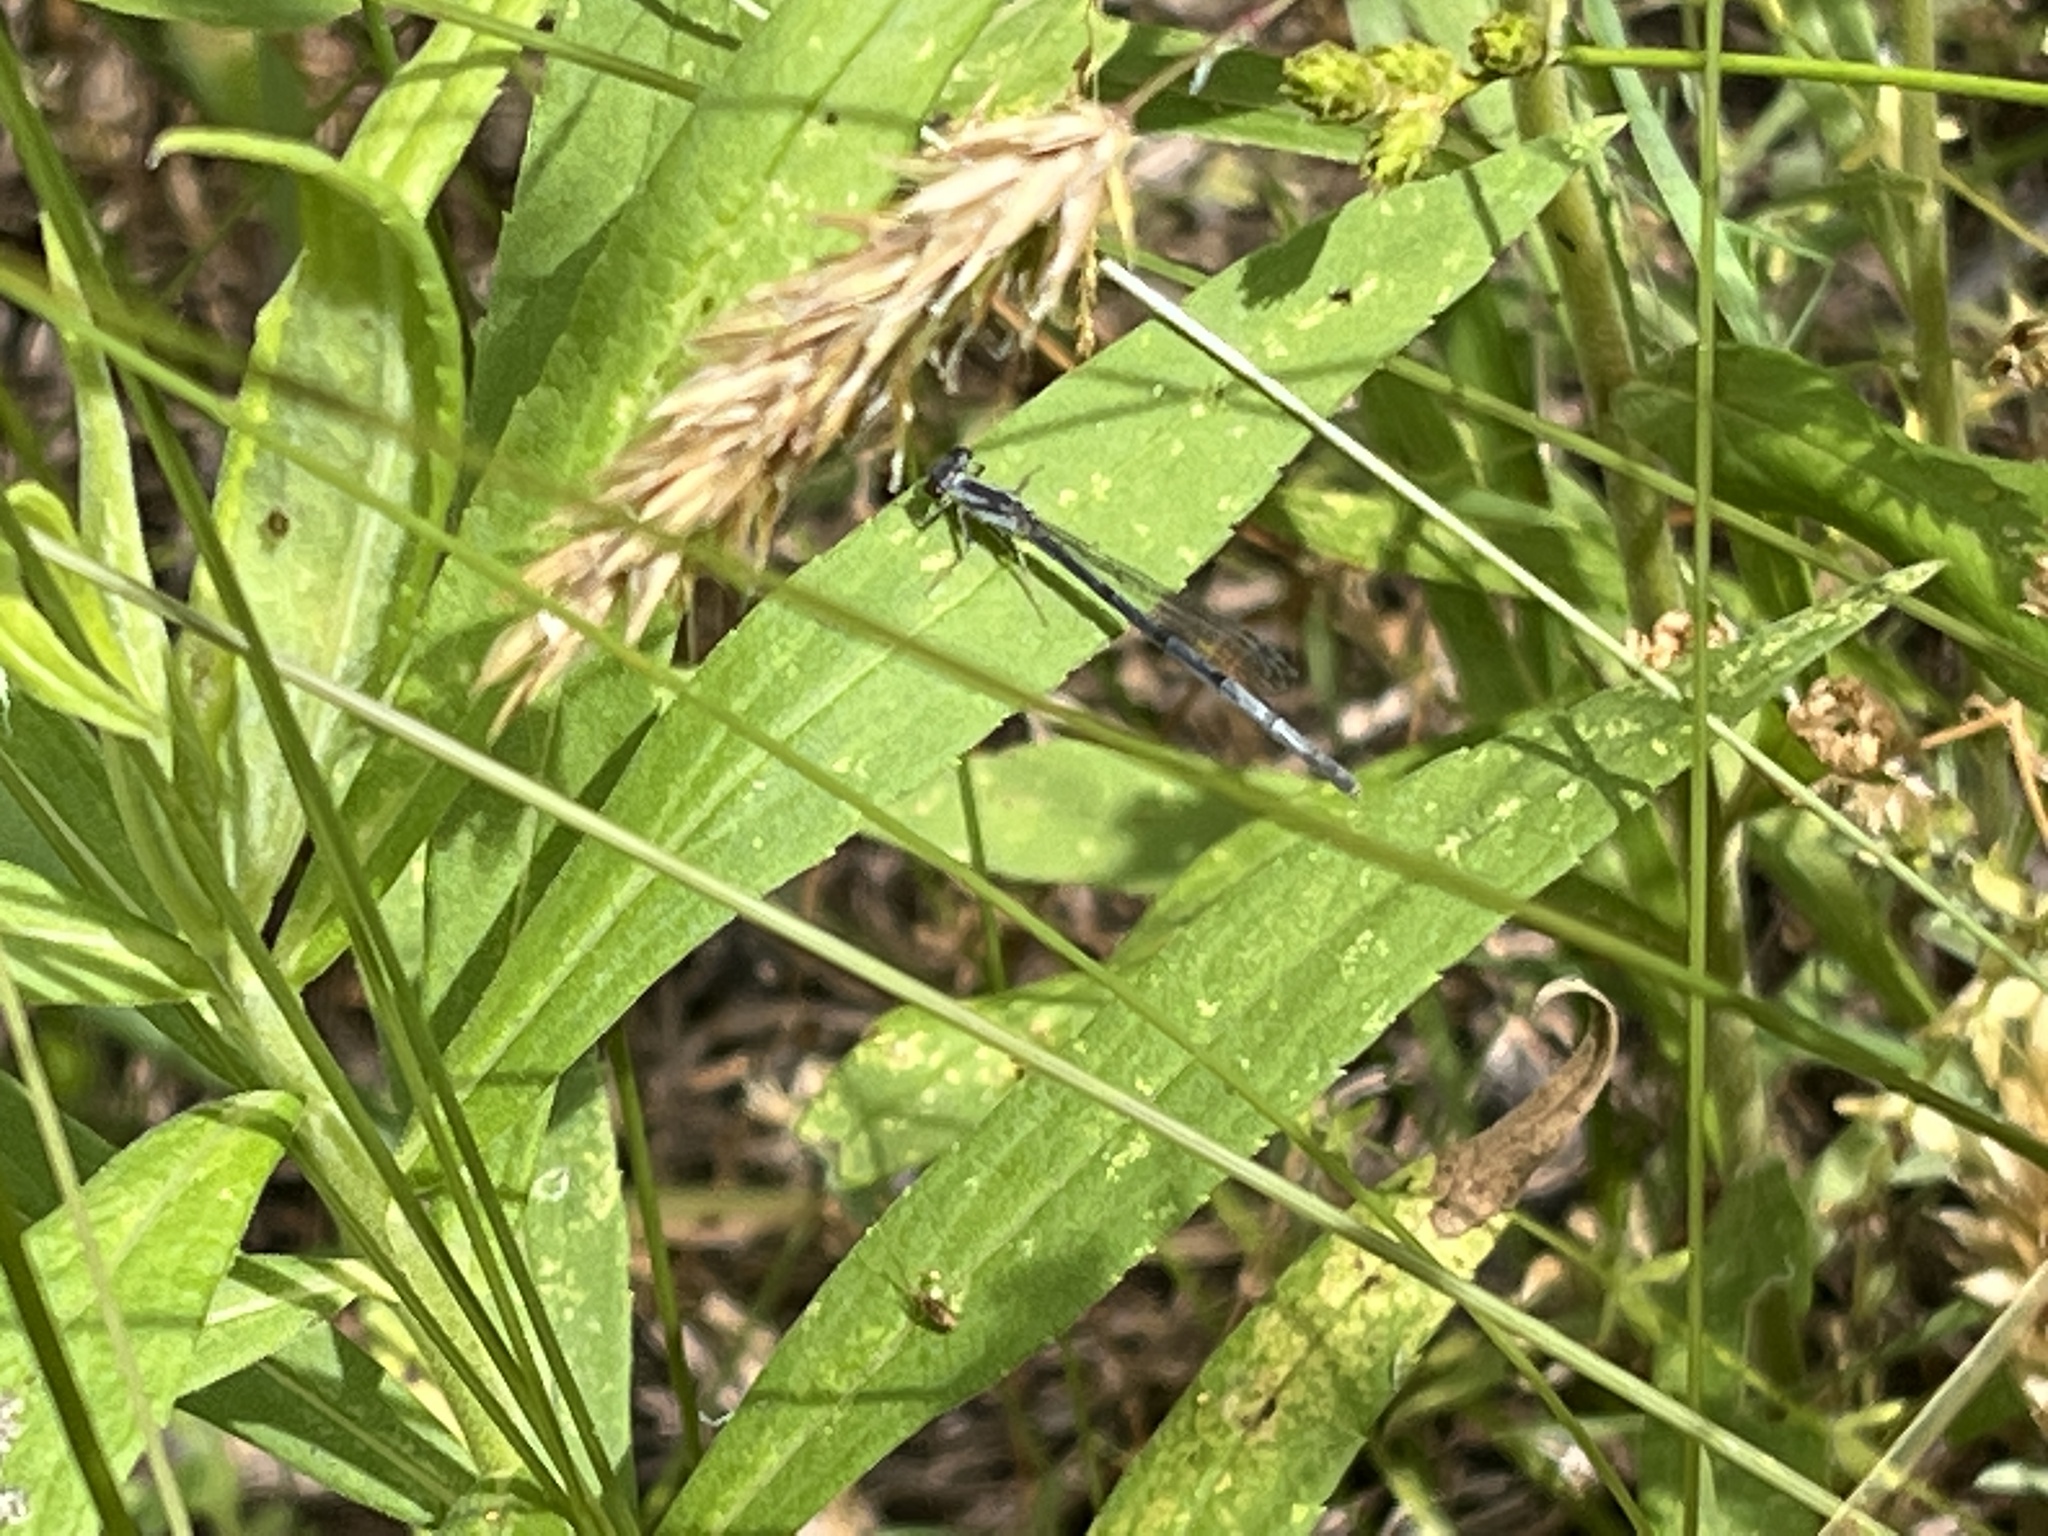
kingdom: Animalia
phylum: Arthropoda
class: Insecta
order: Odonata
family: Coenagrionidae
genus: Ischnura
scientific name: Ischnura posita
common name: Fragile forktail
